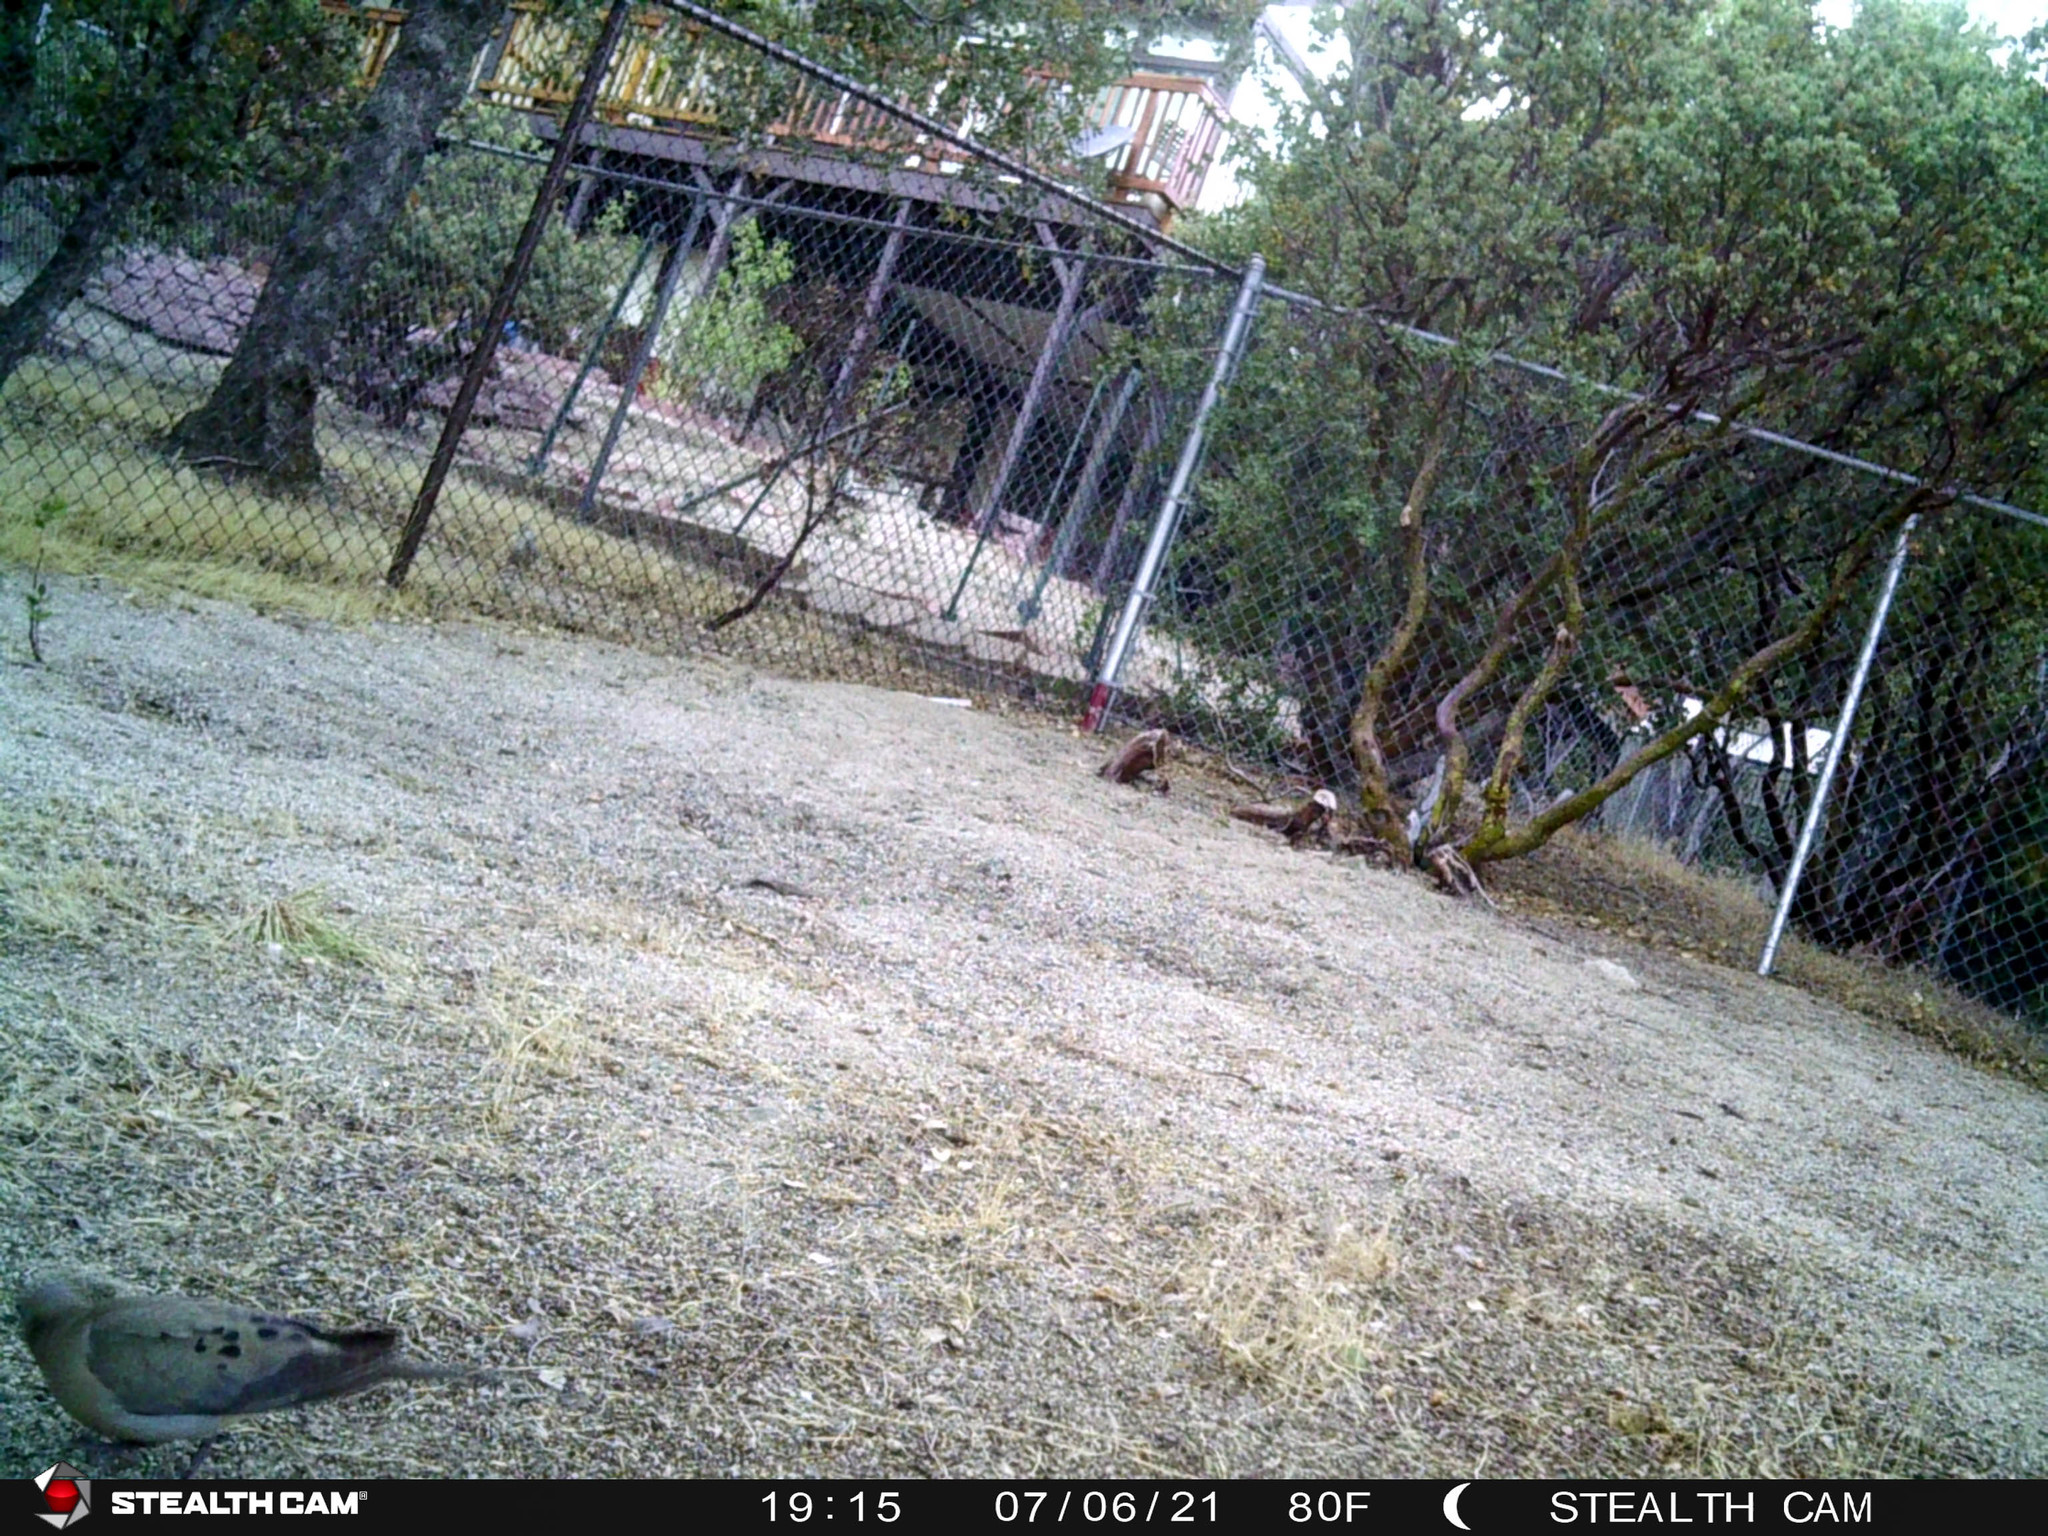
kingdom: Animalia
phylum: Chordata
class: Aves
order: Columbiformes
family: Columbidae
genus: Zenaida
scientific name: Zenaida macroura
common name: Mourning dove
